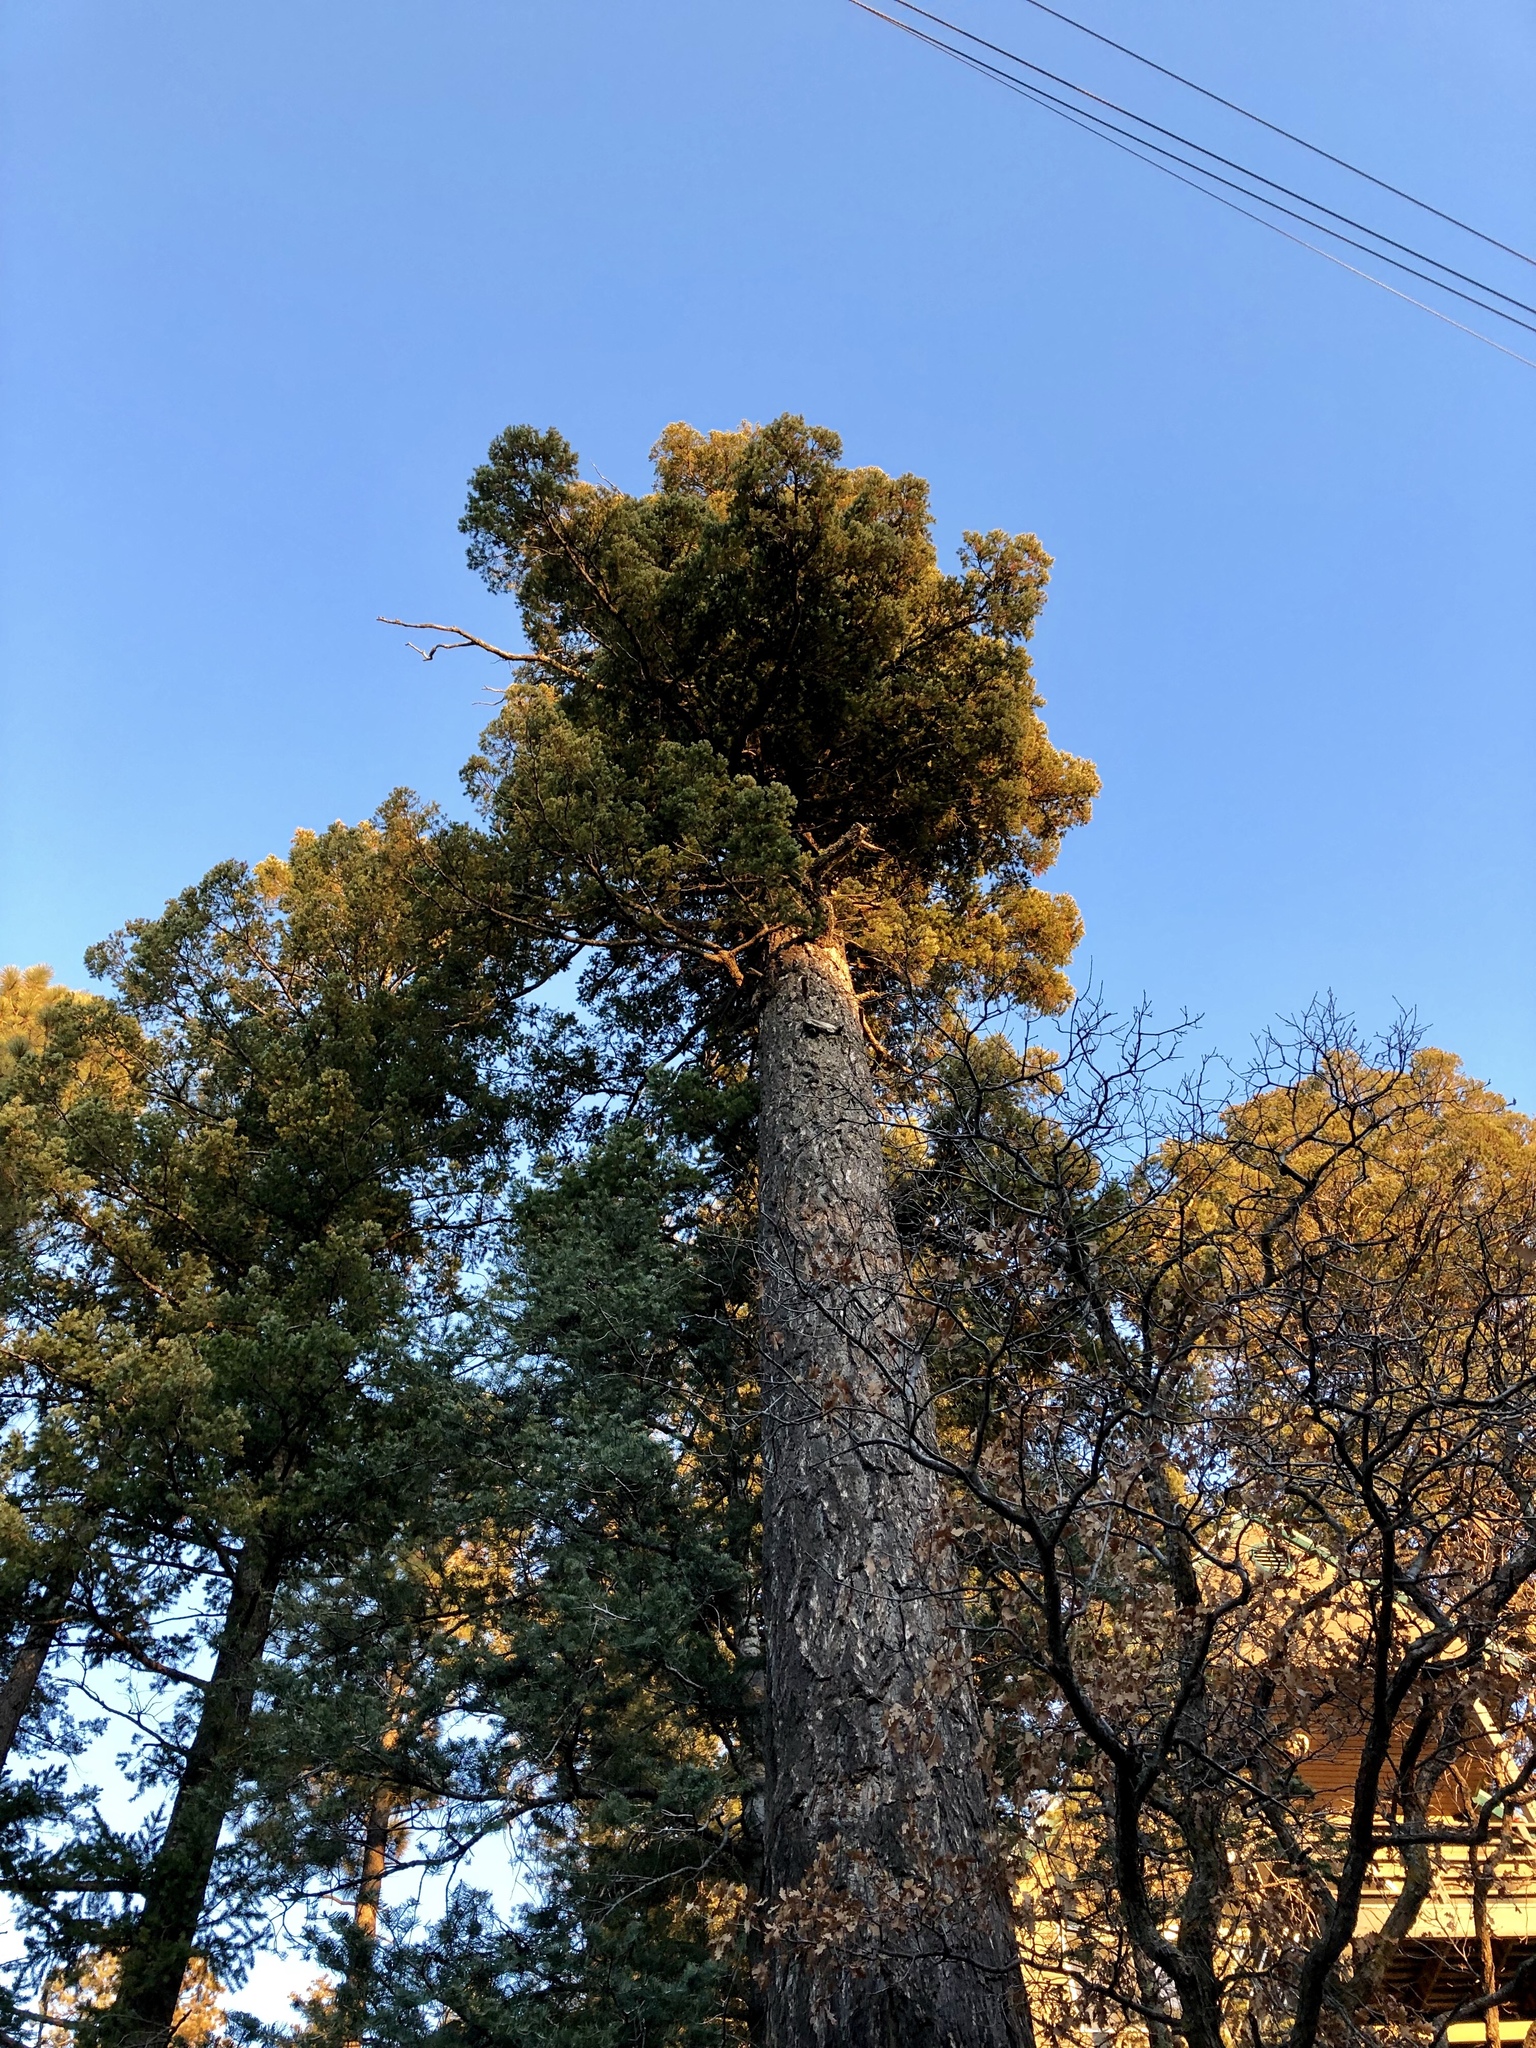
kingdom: Plantae
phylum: Tracheophyta
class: Pinopsida
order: Pinales
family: Pinaceae
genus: Pseudotsuga
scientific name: Pseudotsuga menziesii
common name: Douglas fir
